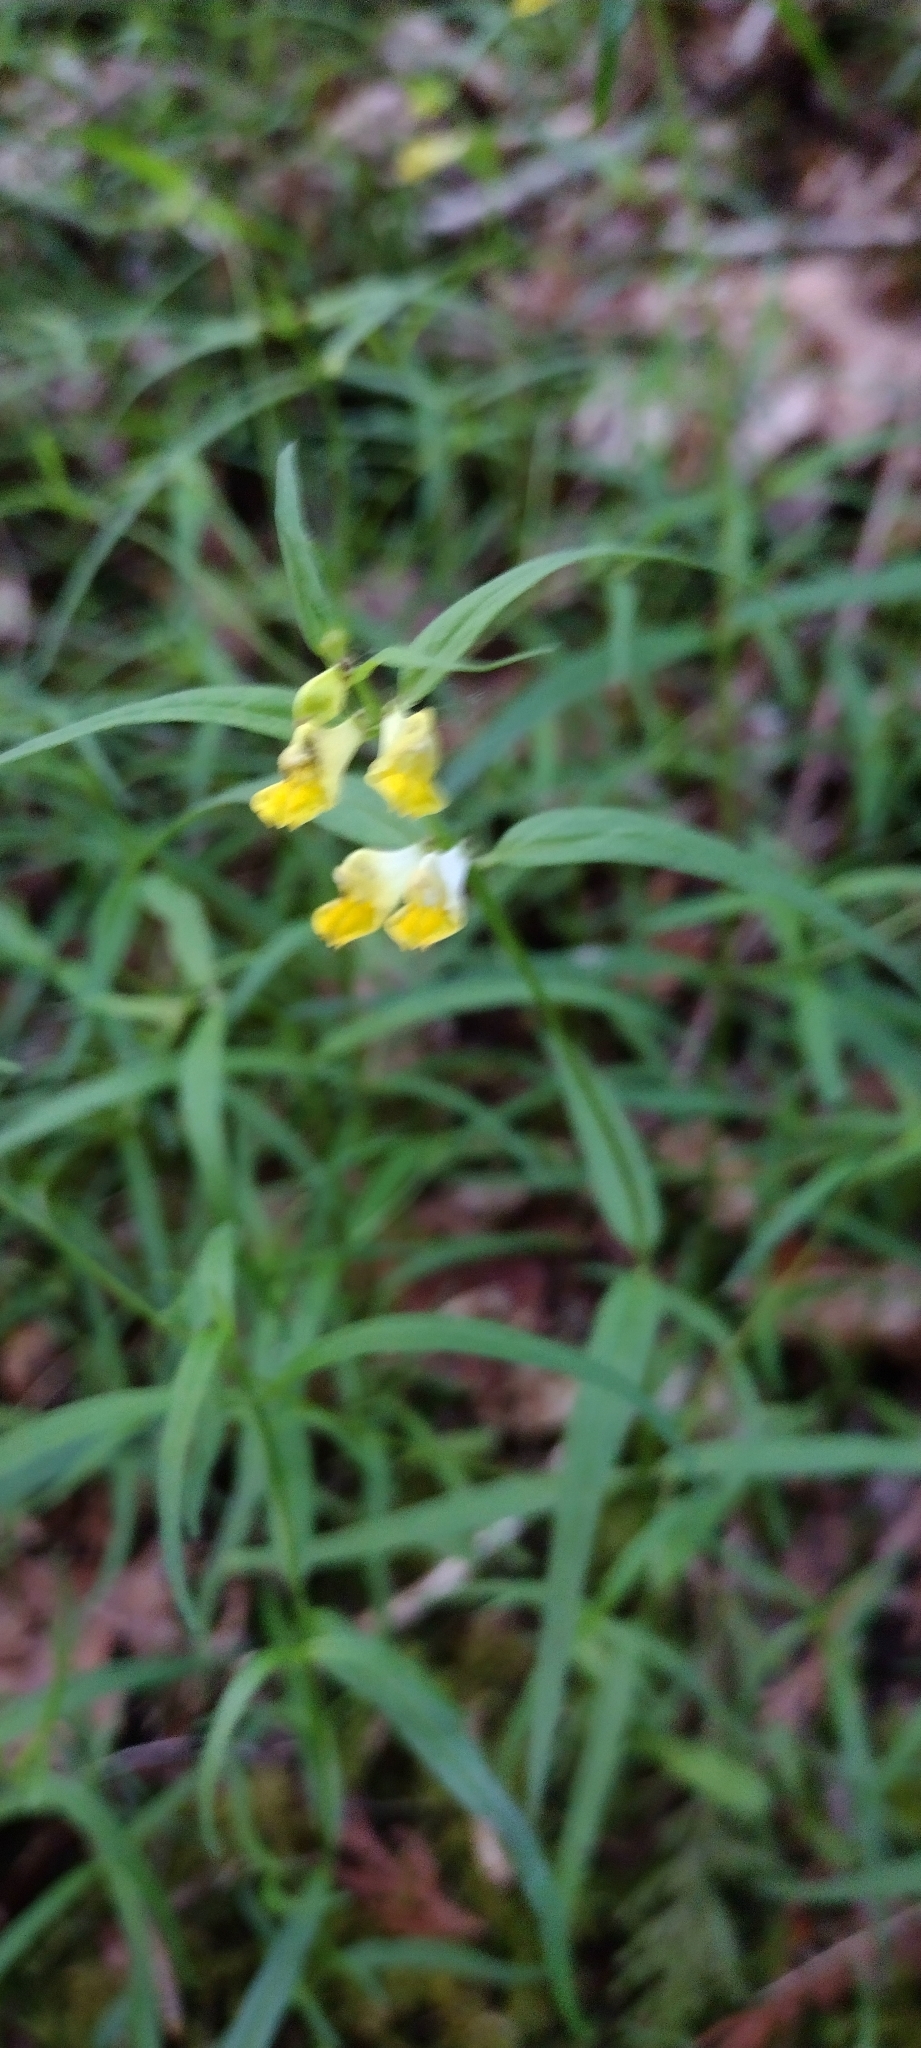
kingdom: Plantae
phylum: Tracheophyta
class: Magnoliopsida
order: Lamiales
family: Orobanchaceae
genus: Melampyrum
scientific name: Melampyrum pratense
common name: Common cow-wheat
